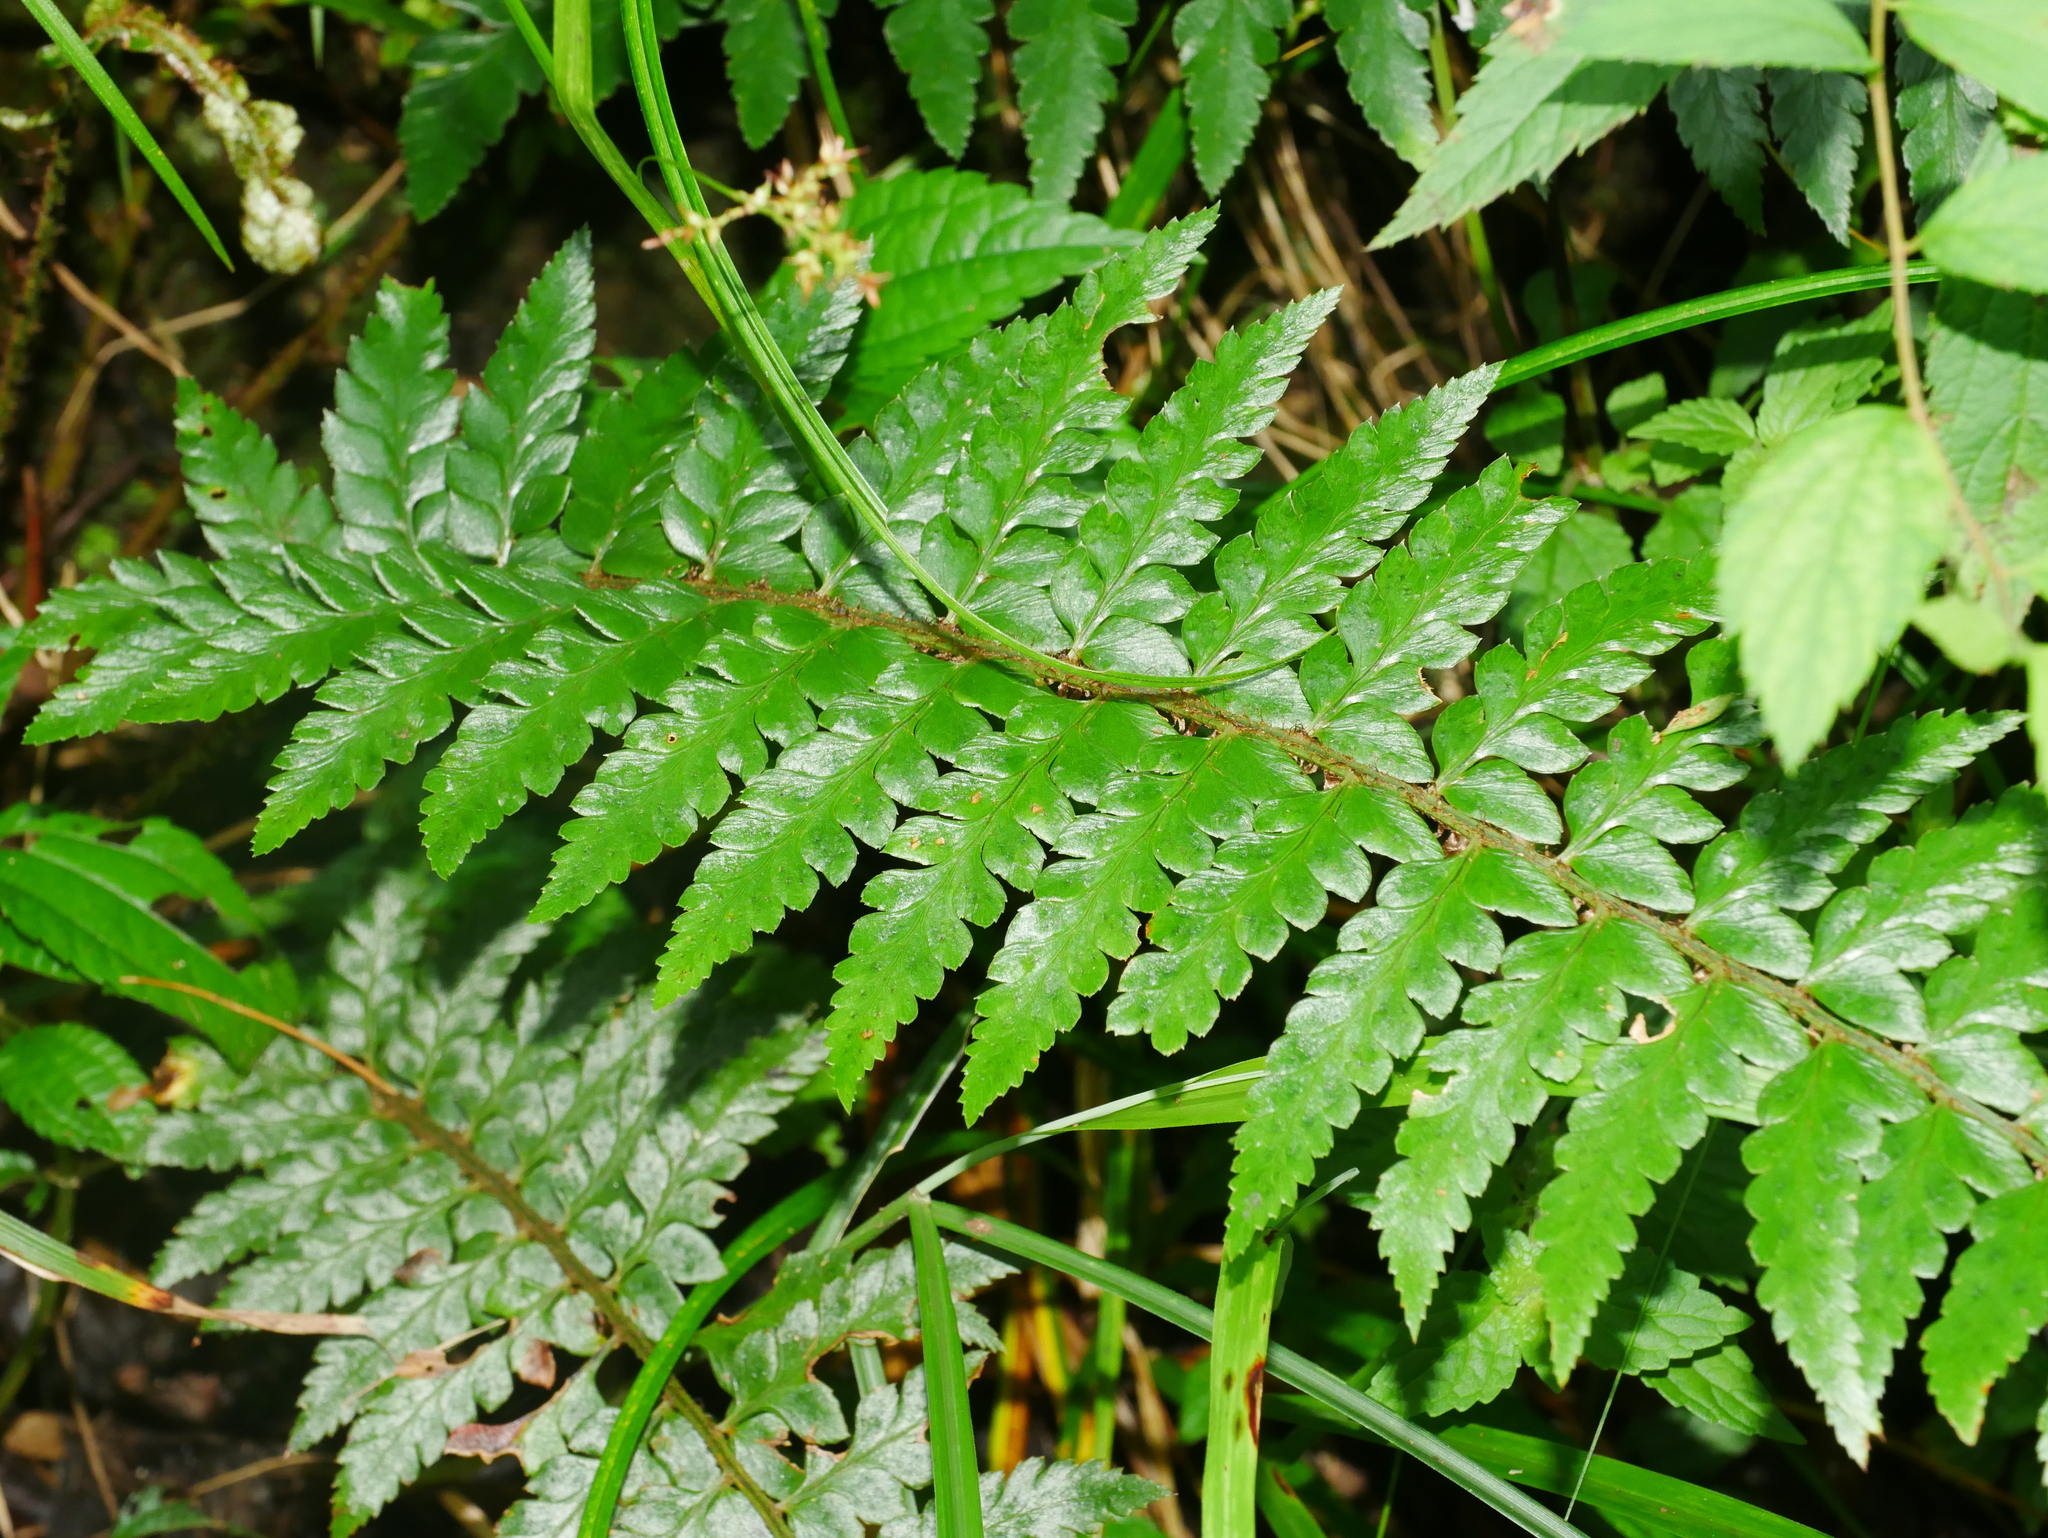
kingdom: Plantae
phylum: Tracheophyta
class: Polypodiopsida
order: Polypodiales
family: Dryopteridaceae
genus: Polystichum
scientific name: Polystichum manmeiense
